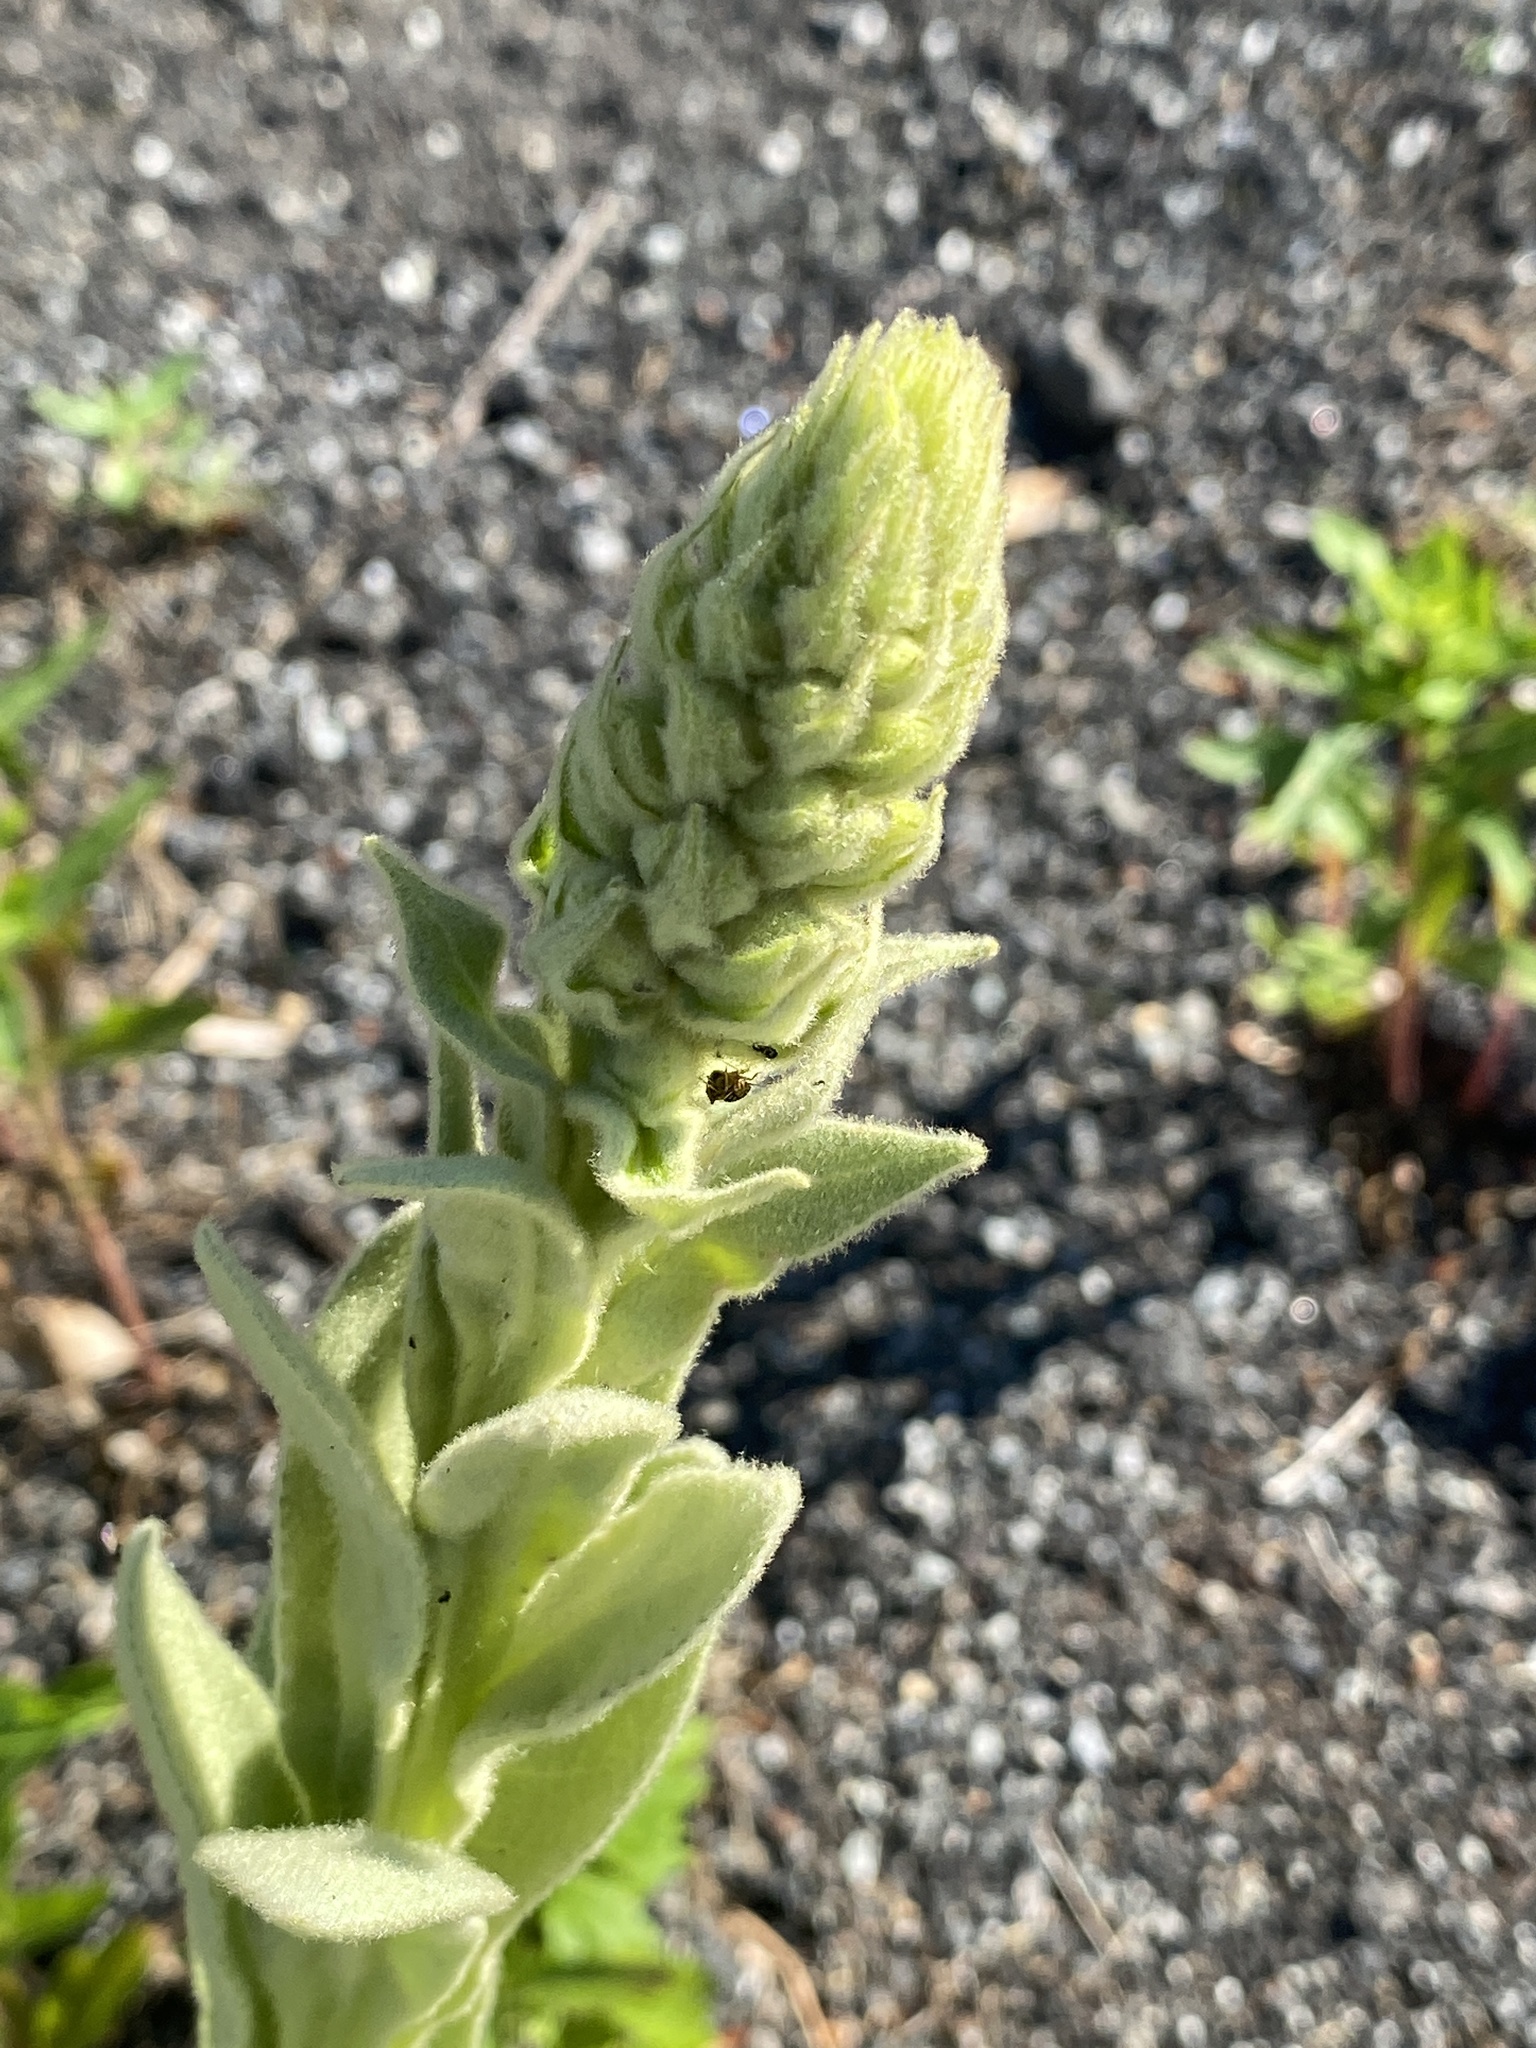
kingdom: Plantae
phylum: Tracheophyta
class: Magnoliopsida
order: Lamiales
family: Scrophulariaceae
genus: Verbascum
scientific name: Verbascum thapsus
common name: Common mullein
